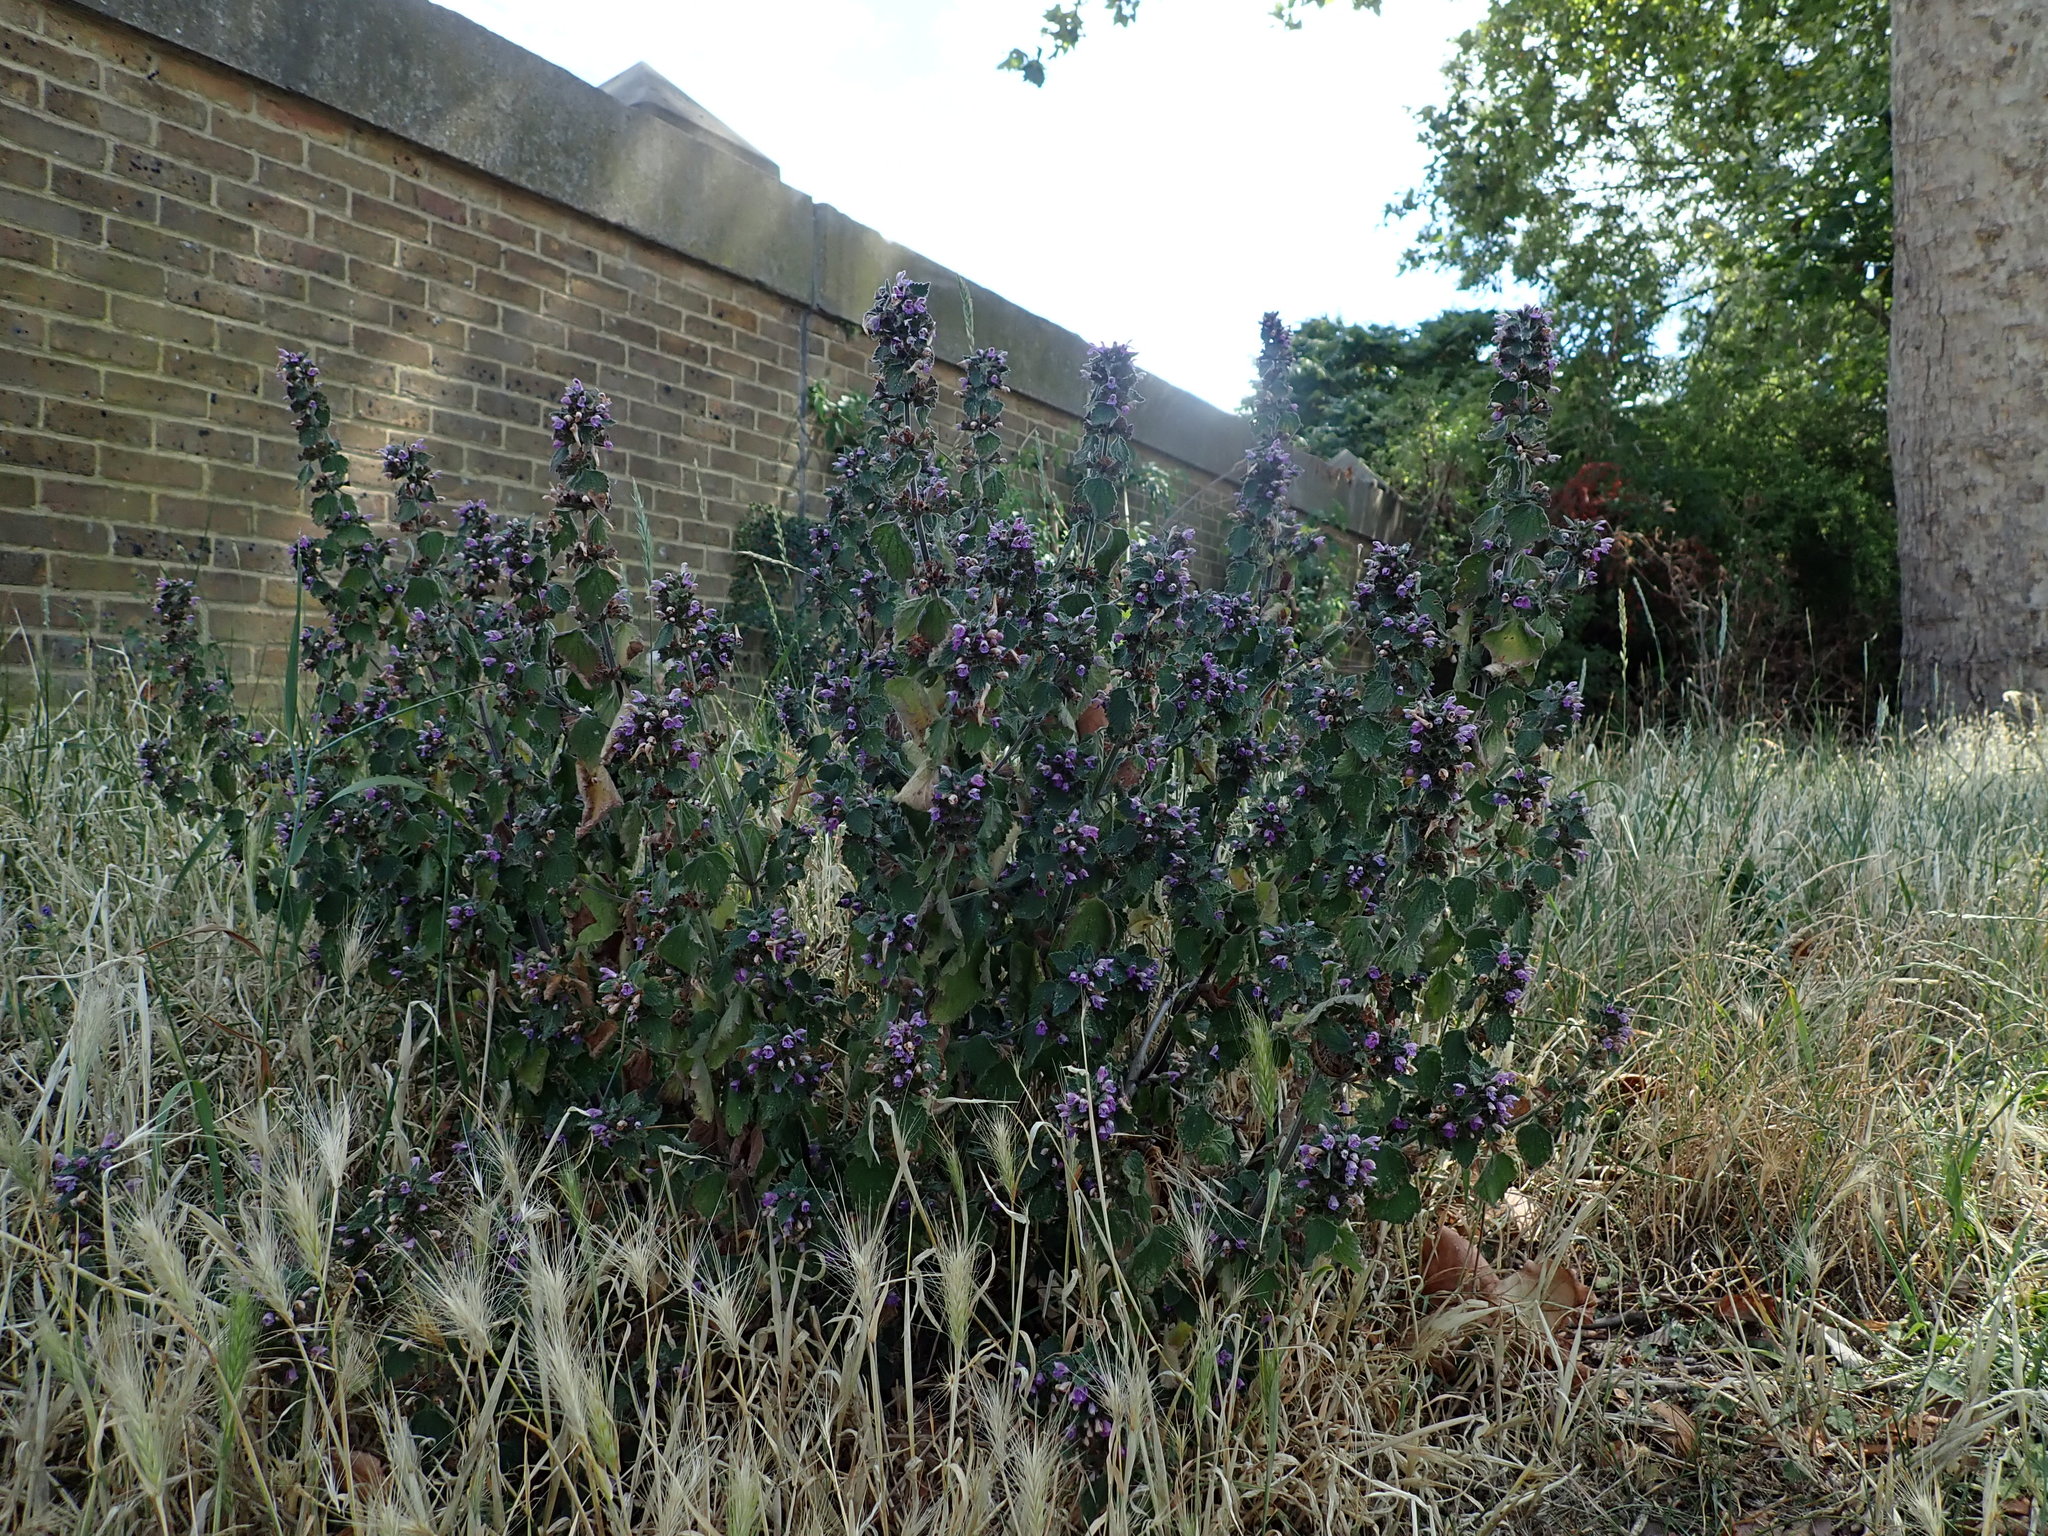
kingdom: Plantae
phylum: Tracheophyta
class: Magnoliopsida
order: Lamiales
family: Lamiaceae
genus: Ballota
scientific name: Ballota nigra
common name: Black horehound
